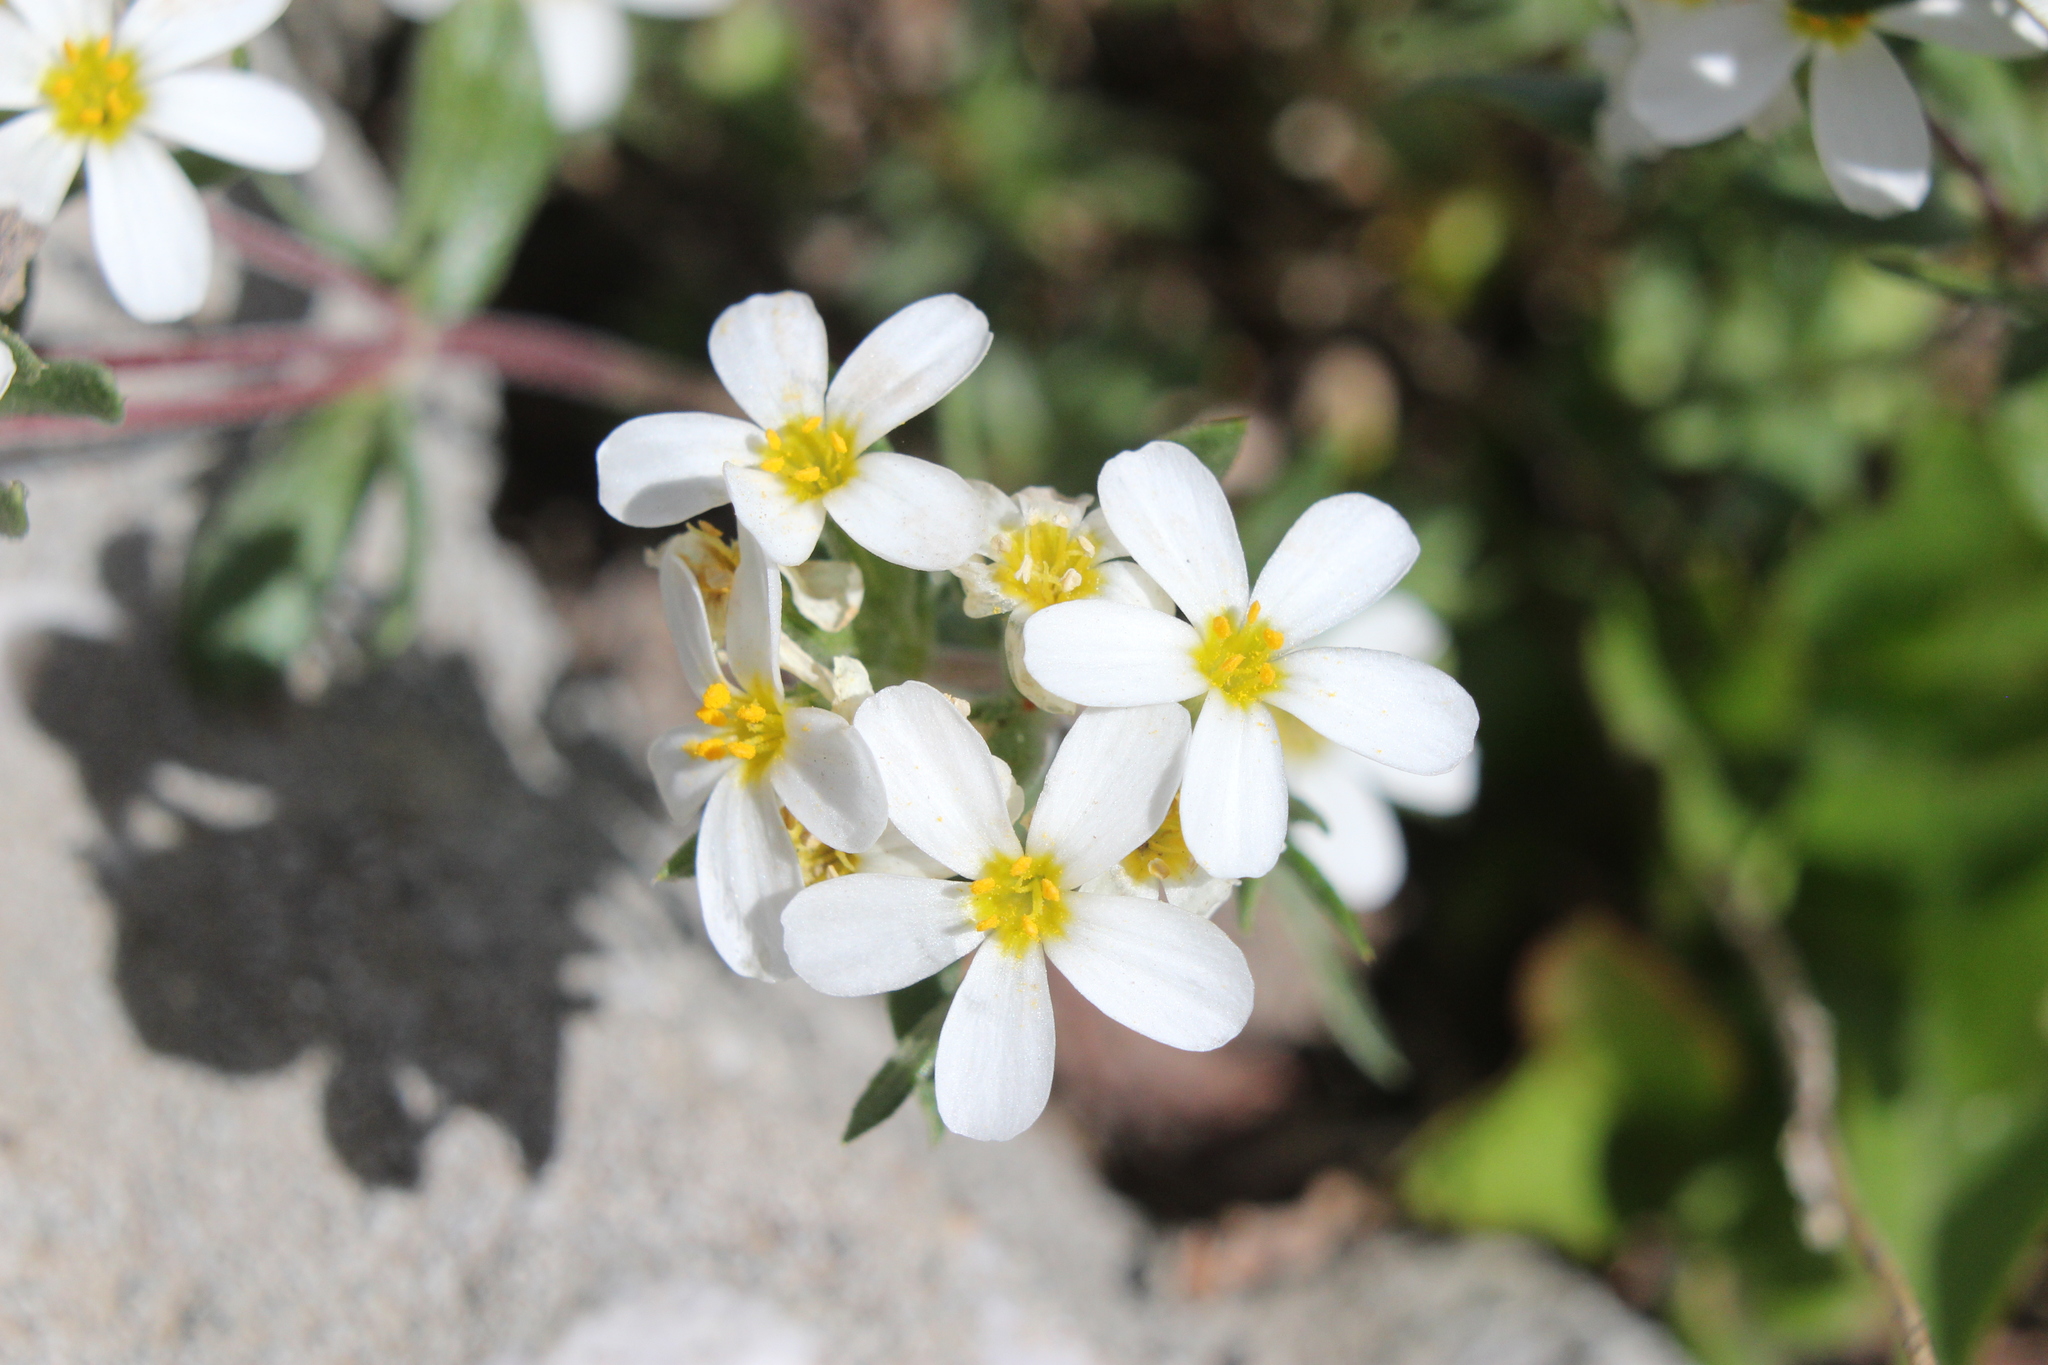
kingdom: Plantae
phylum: Tracheophyta
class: Magnoliopsida
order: Ericales
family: Polemoniaceae
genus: Leptosiphon
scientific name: Leptosiphon nuttallii
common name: Nuttall's linanthus
